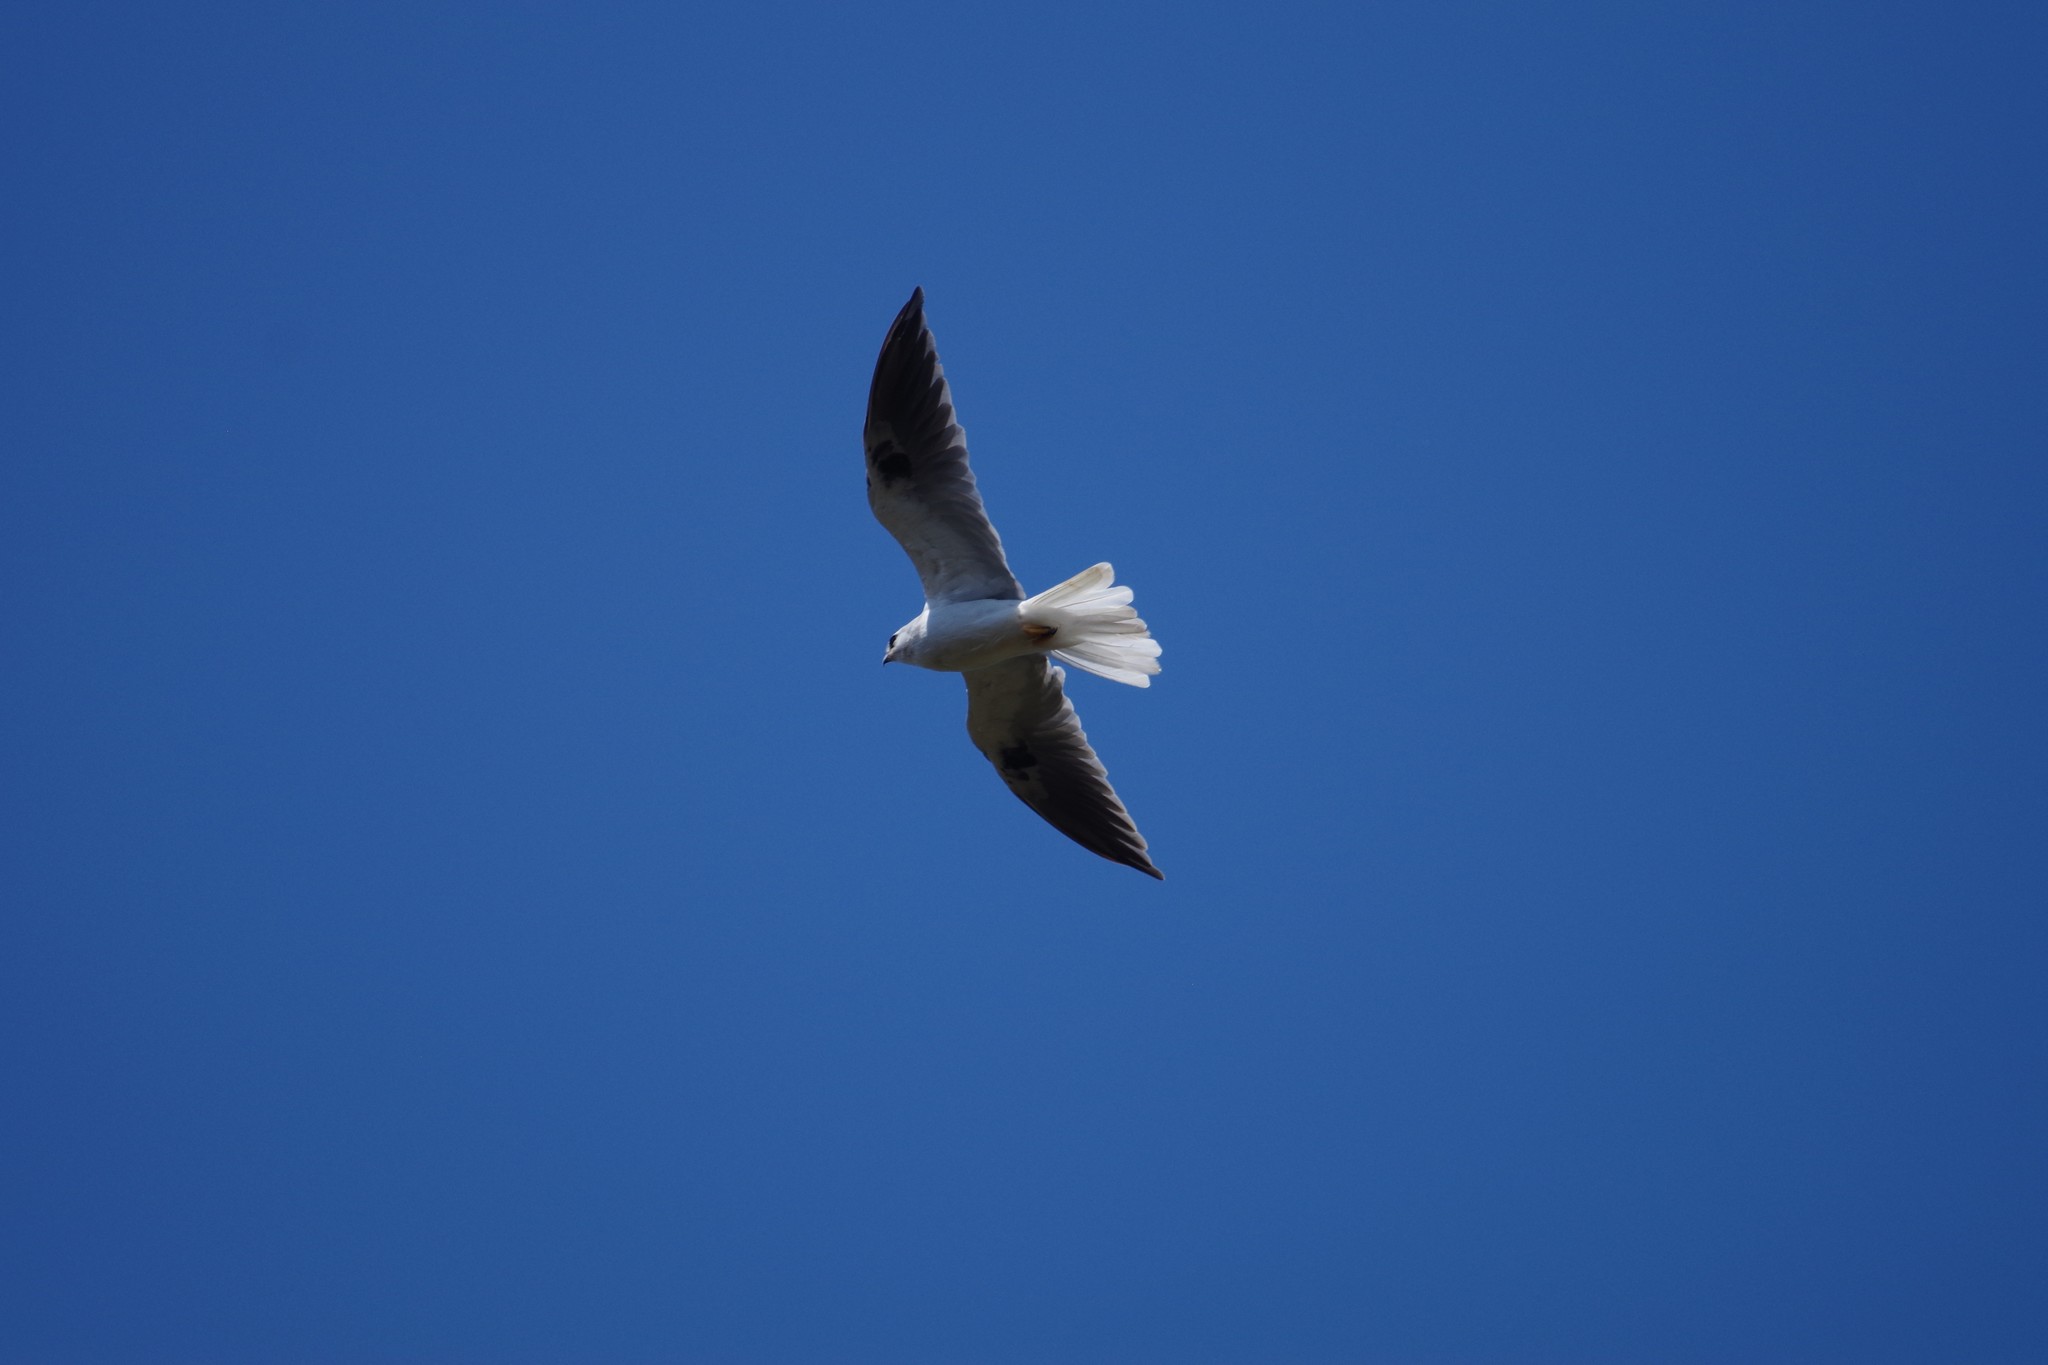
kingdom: Animalia
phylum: Chordata
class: Aves
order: Accipitriformes
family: Accipitridae
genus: Elanus
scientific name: Elanus leucurus
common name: White-tailed kite
